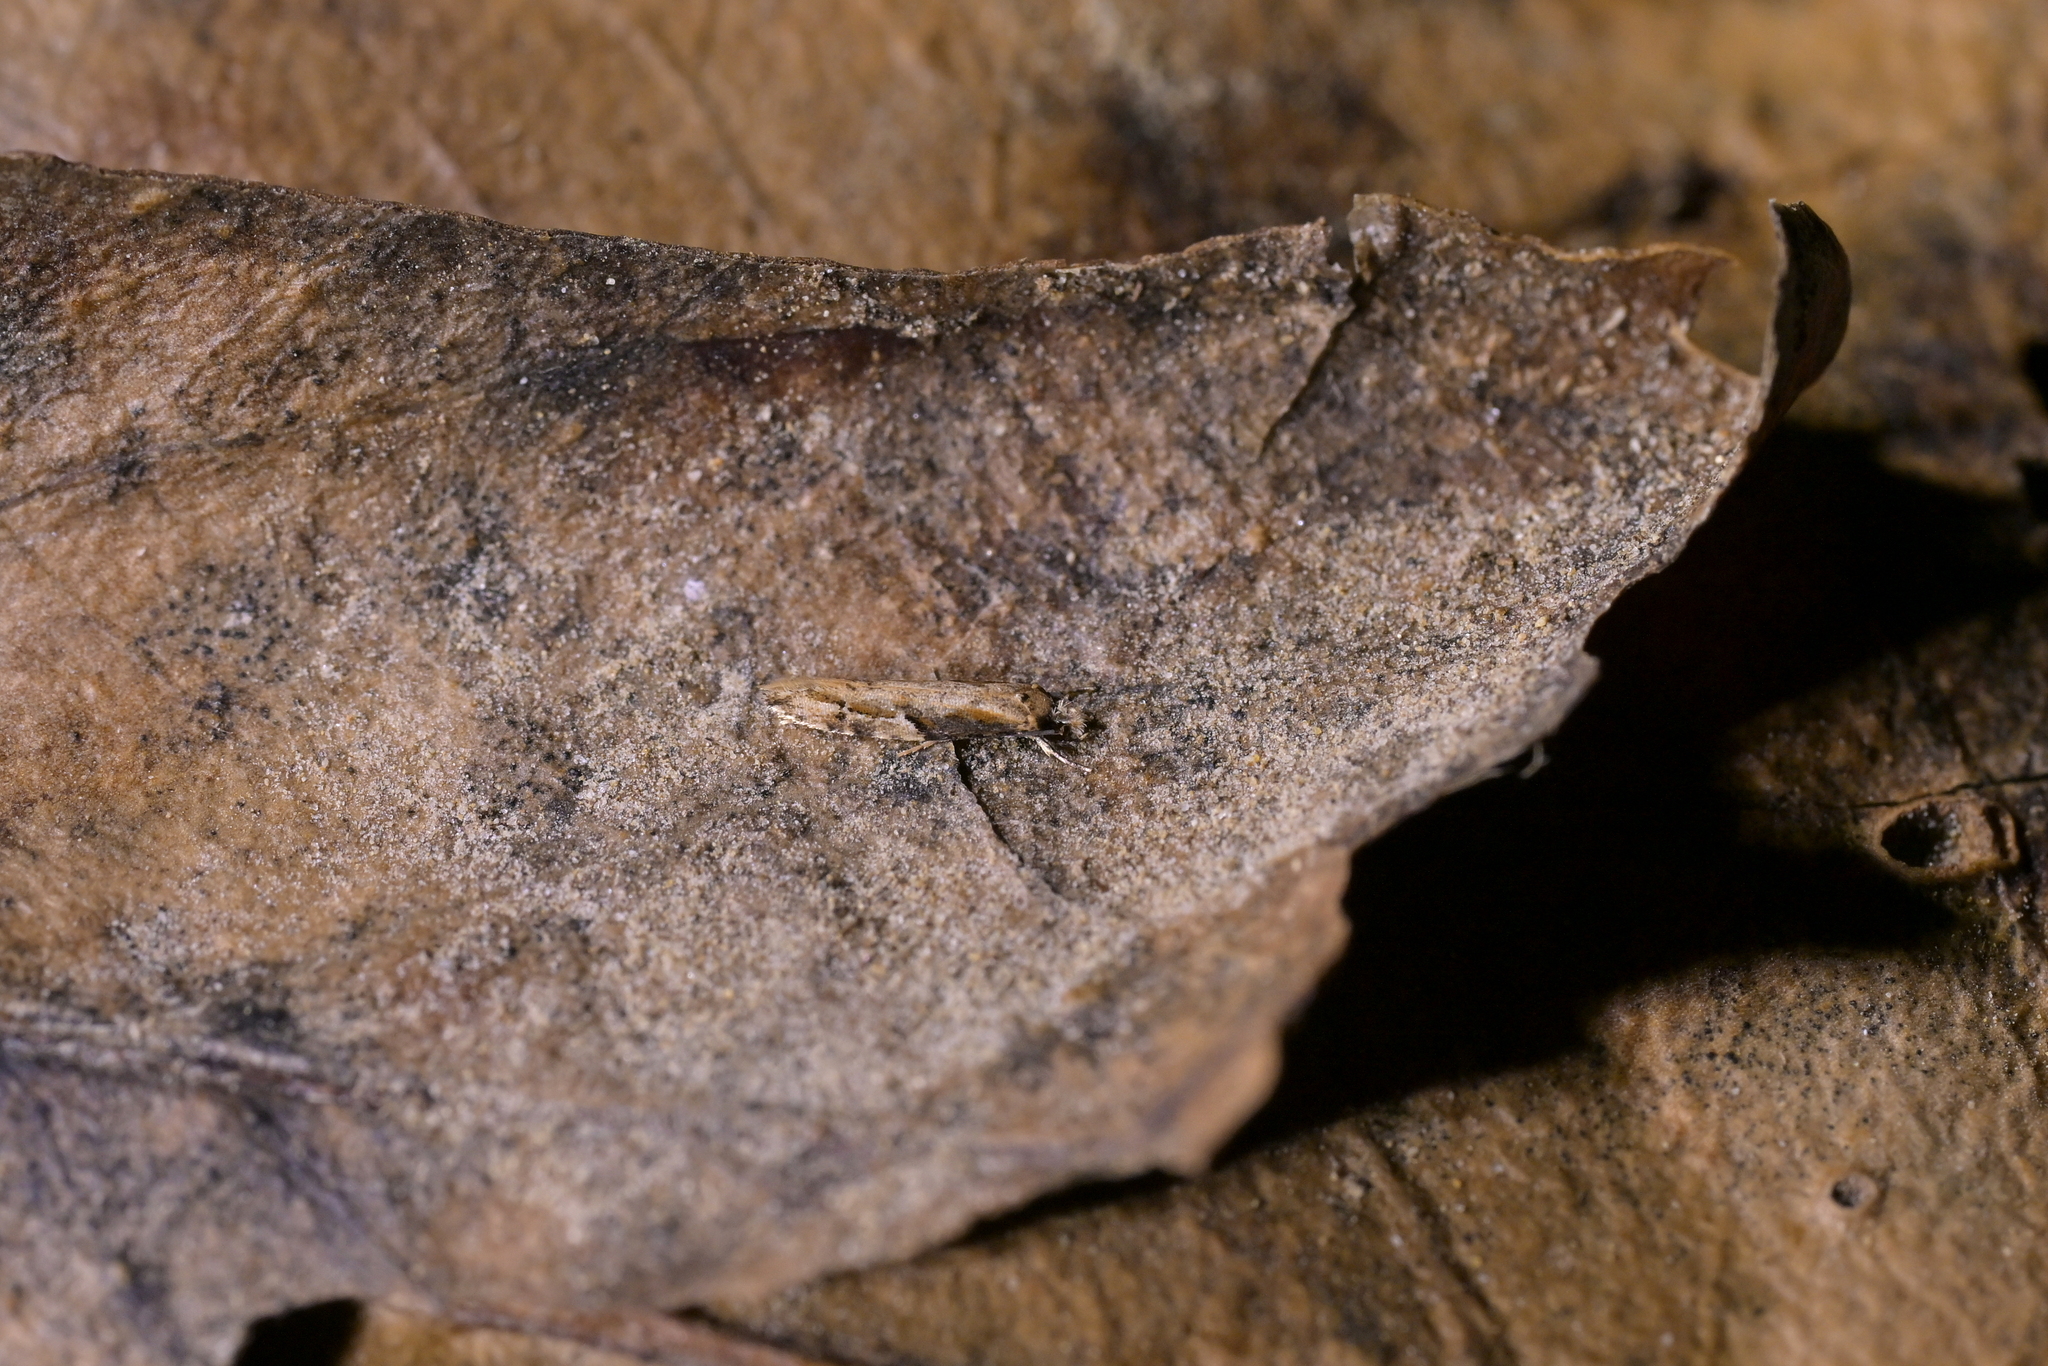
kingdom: Animalia
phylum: Arthropoda
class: Insecta
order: Lepidoptera
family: Tineidae
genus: Crypsitricha
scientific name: Crypsitricha agriopa
